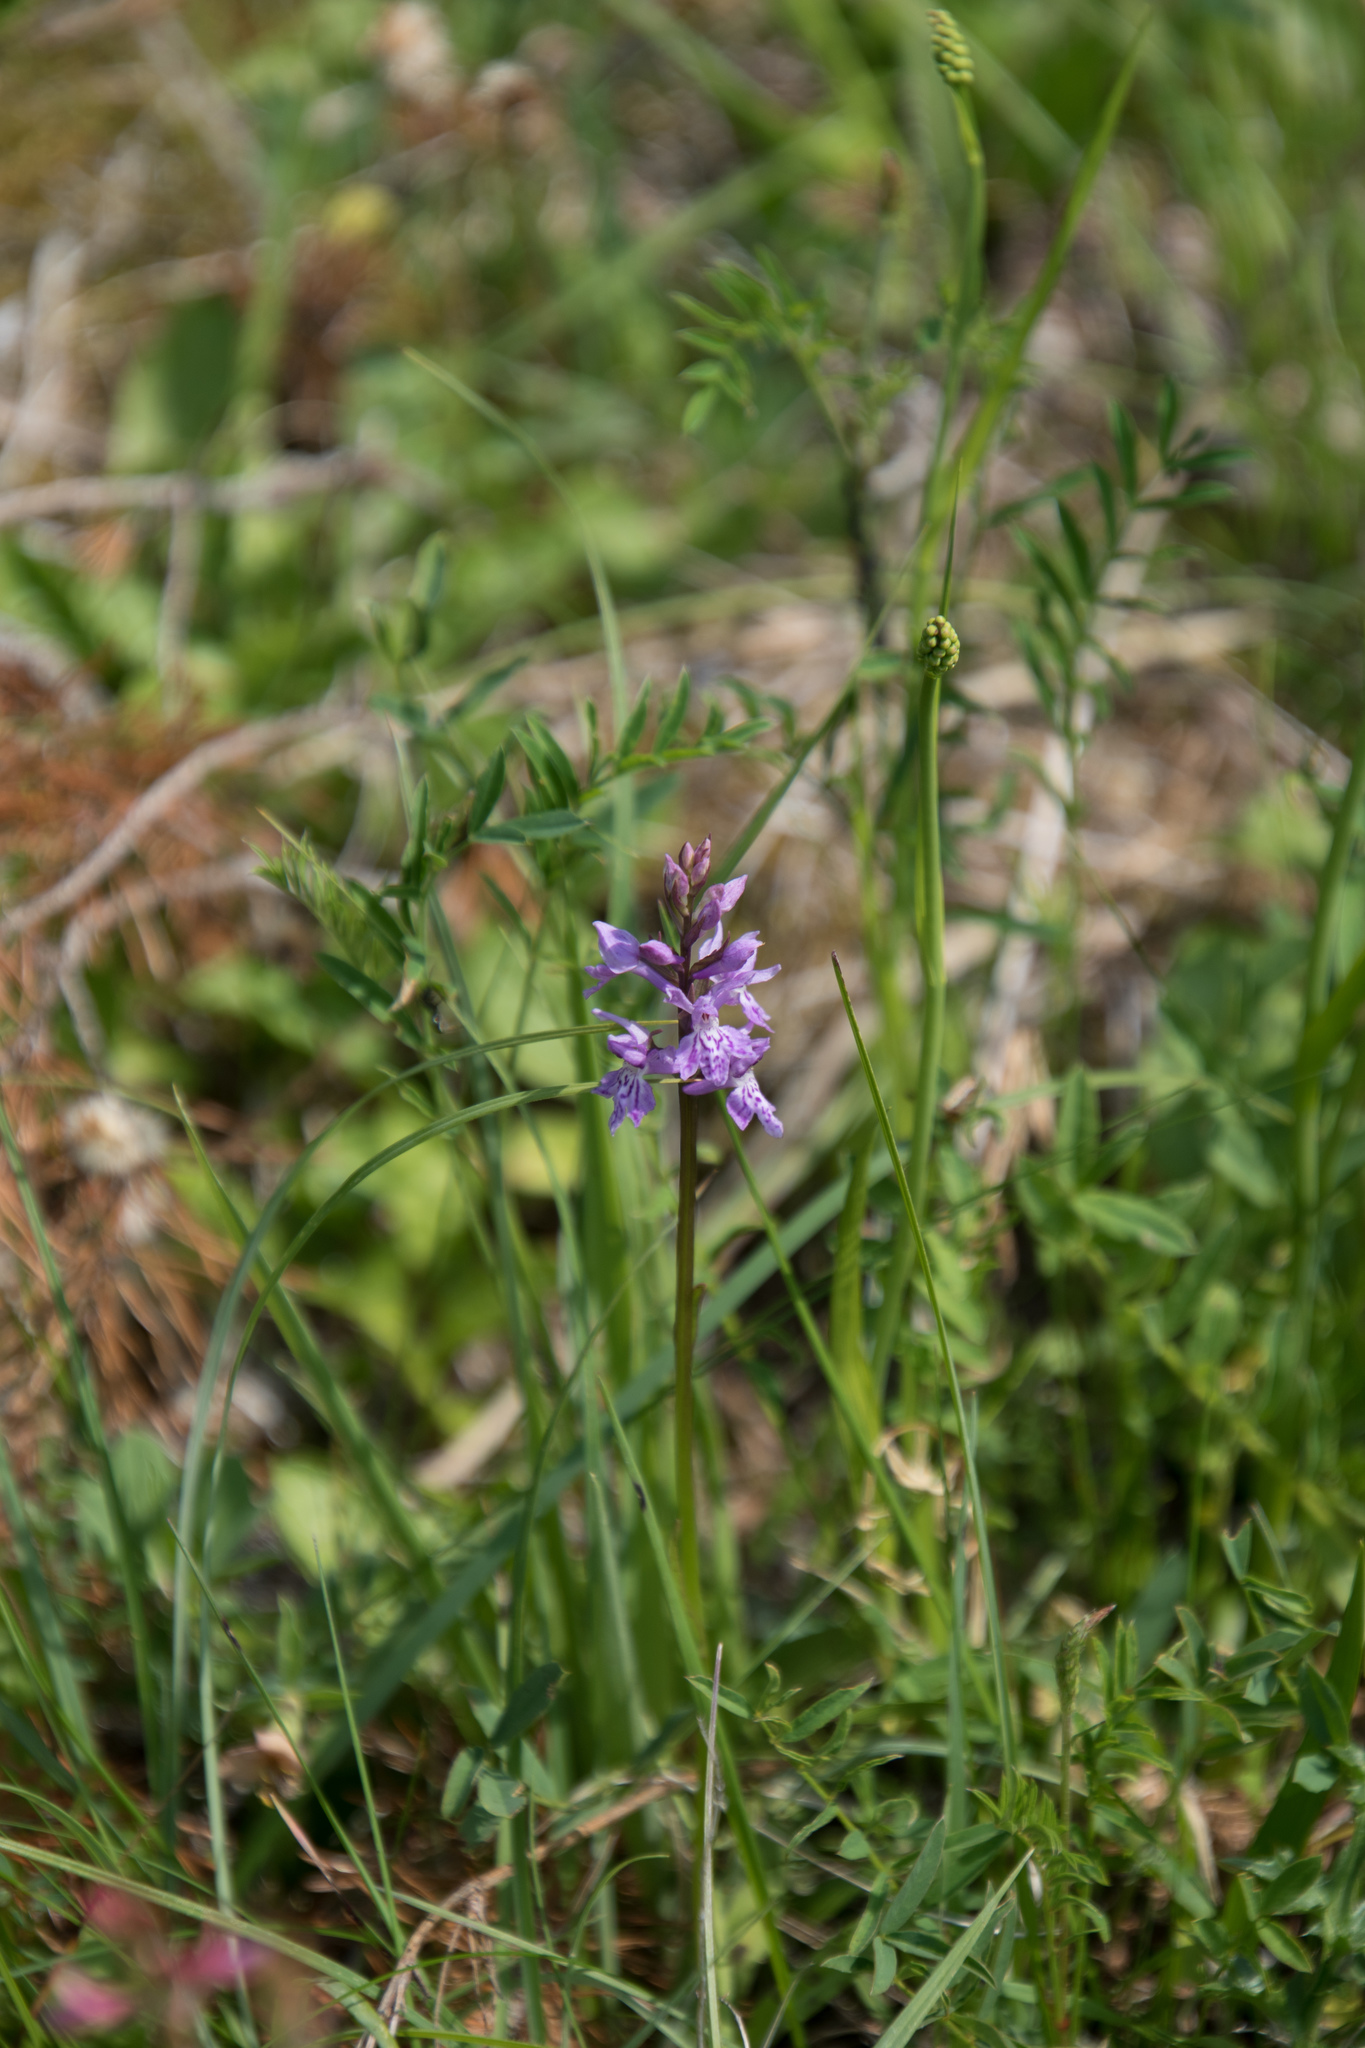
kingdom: Plantae
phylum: Tracheophyta
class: Liliopsida
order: Asparagales
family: Orchidaceae
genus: Dactylorhiza
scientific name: Dactylorhiza maculata
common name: Heath spotted-orchid
